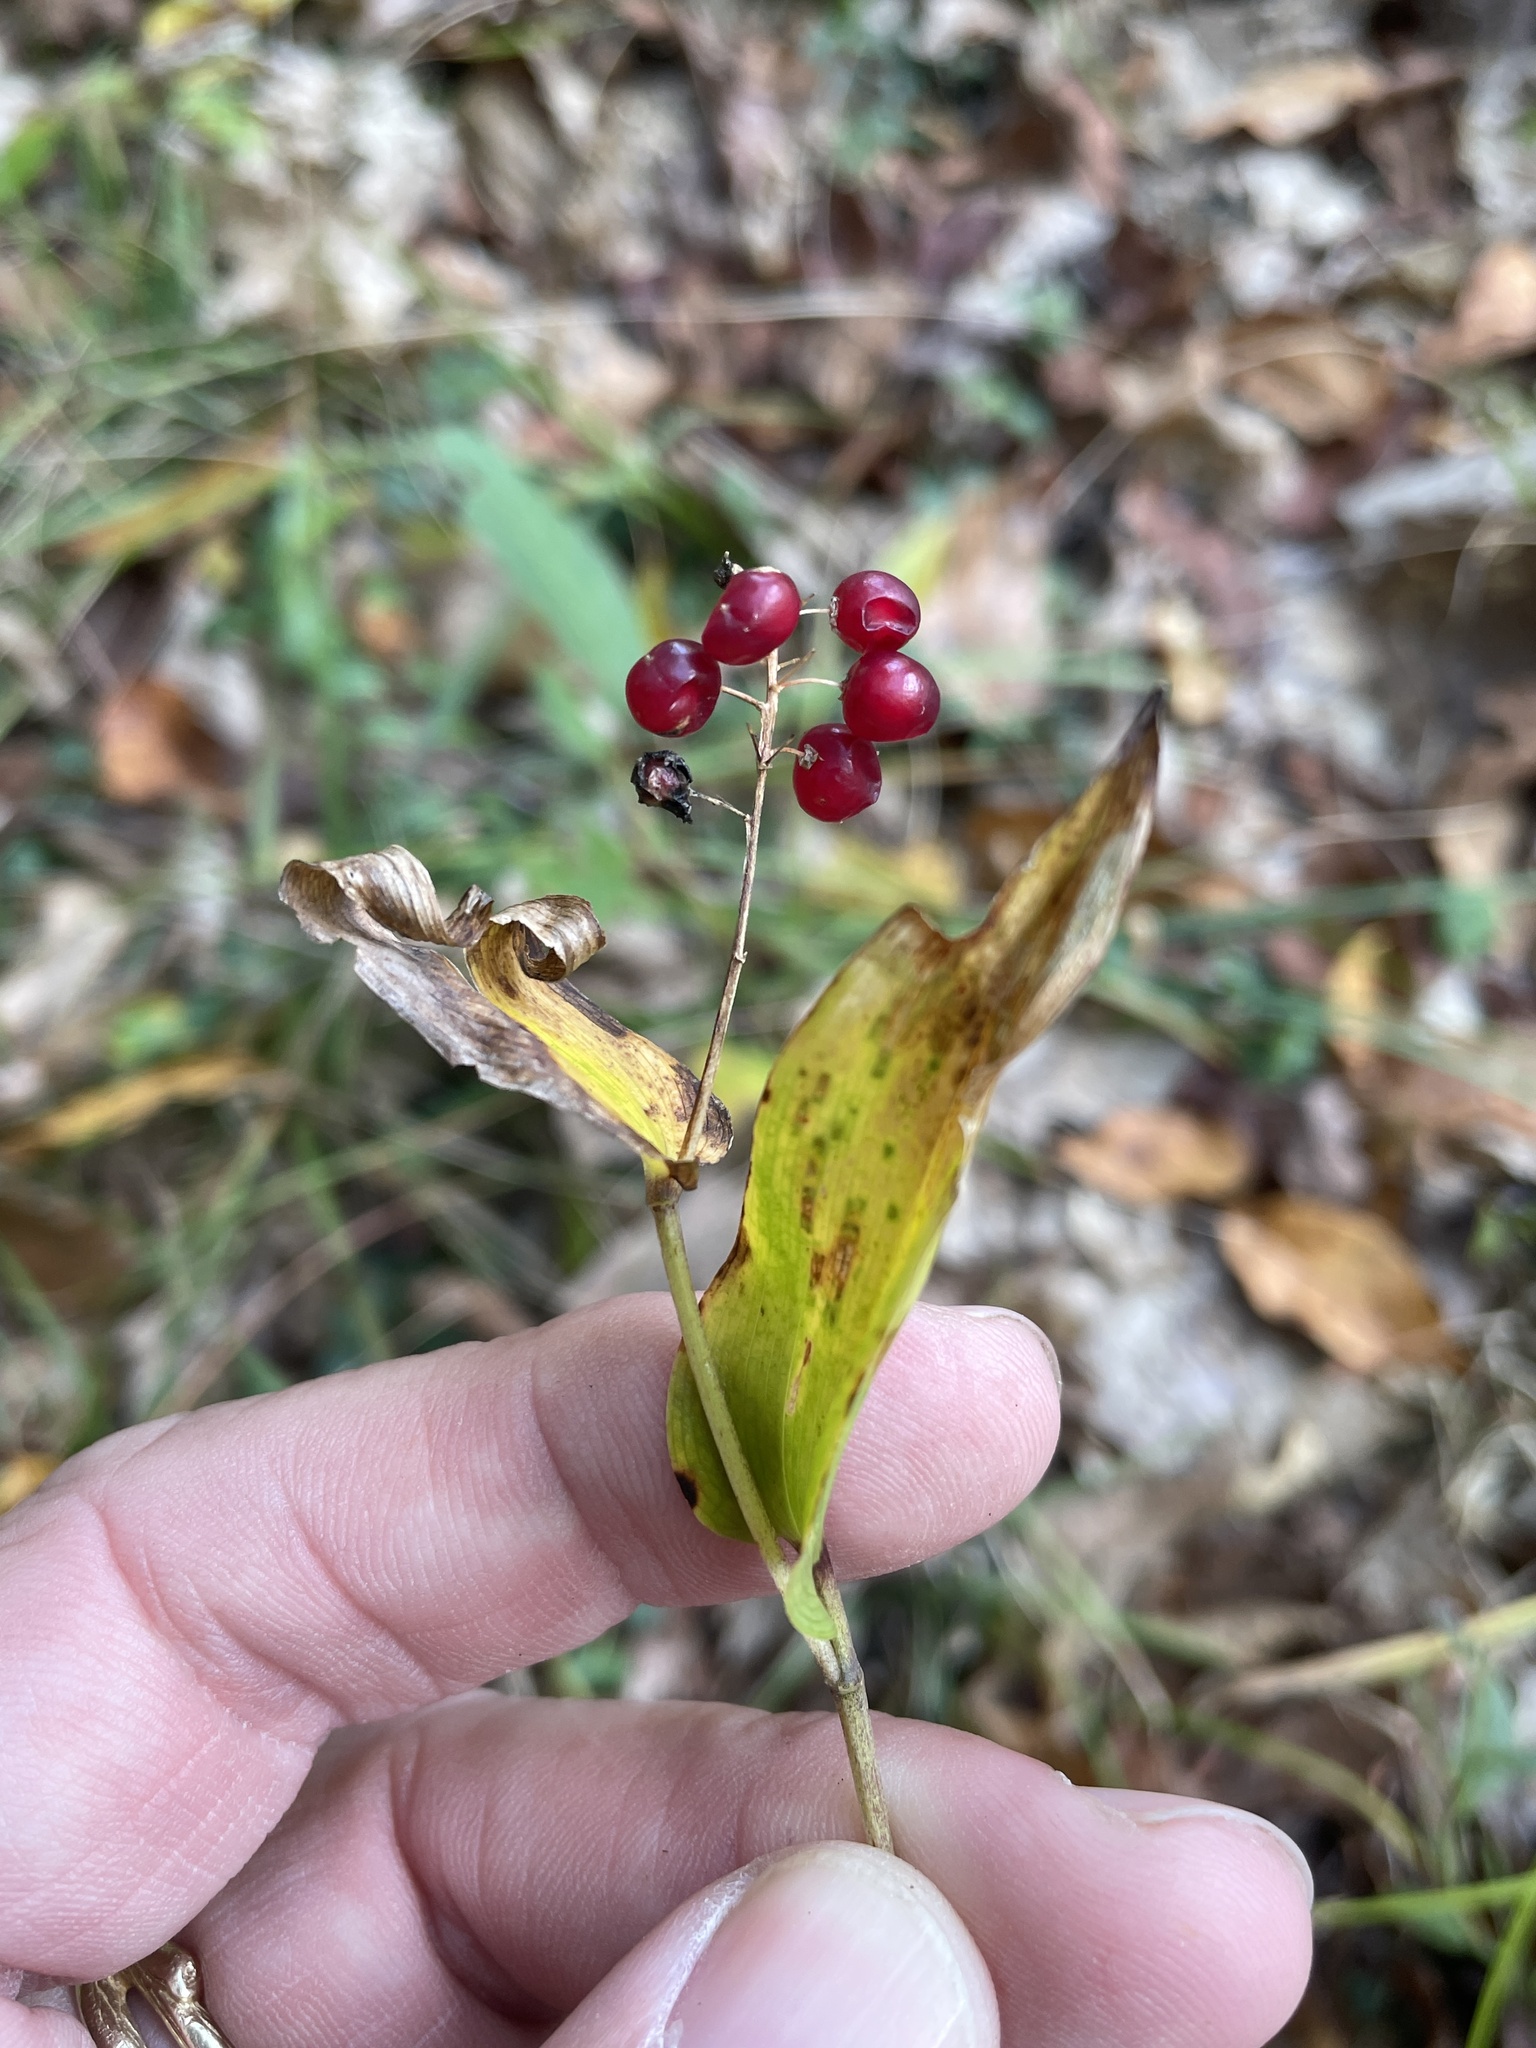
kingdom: Plantae
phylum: Tracheophyta
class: Liliopsida
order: Asparagales
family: Asparagaceae
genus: Maianthemum
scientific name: Maianthemum canadense
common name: False lily-of-the-valley
